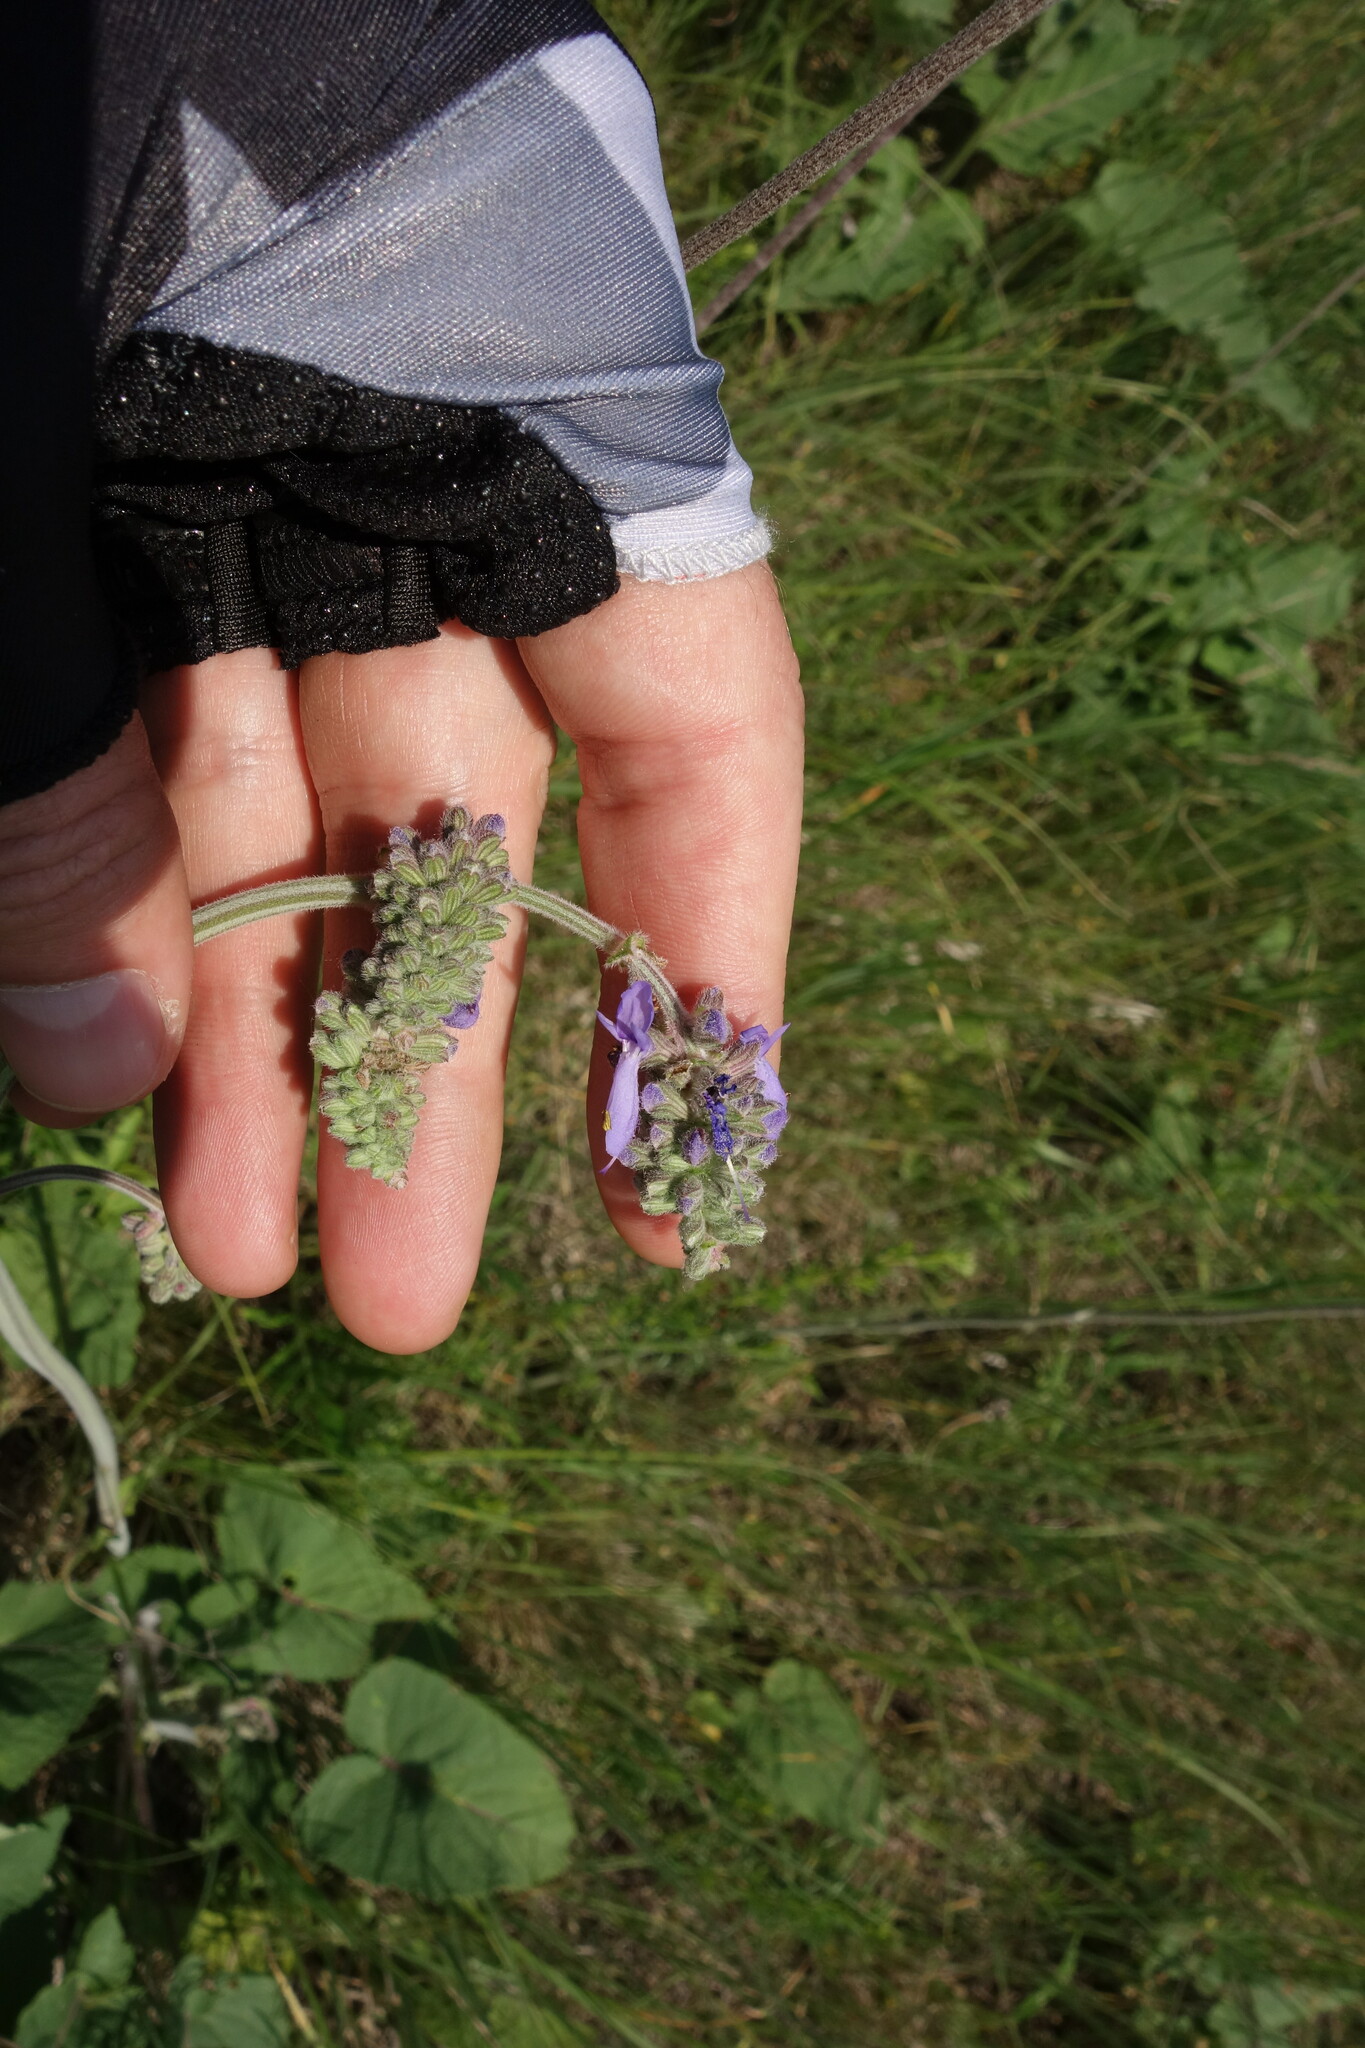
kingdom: Plantae
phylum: Tracheophyta
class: Magnoliopsida
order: Lamiales
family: Lamiaceae
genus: Salvia
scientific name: Salvia nutans
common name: Nodding sage
